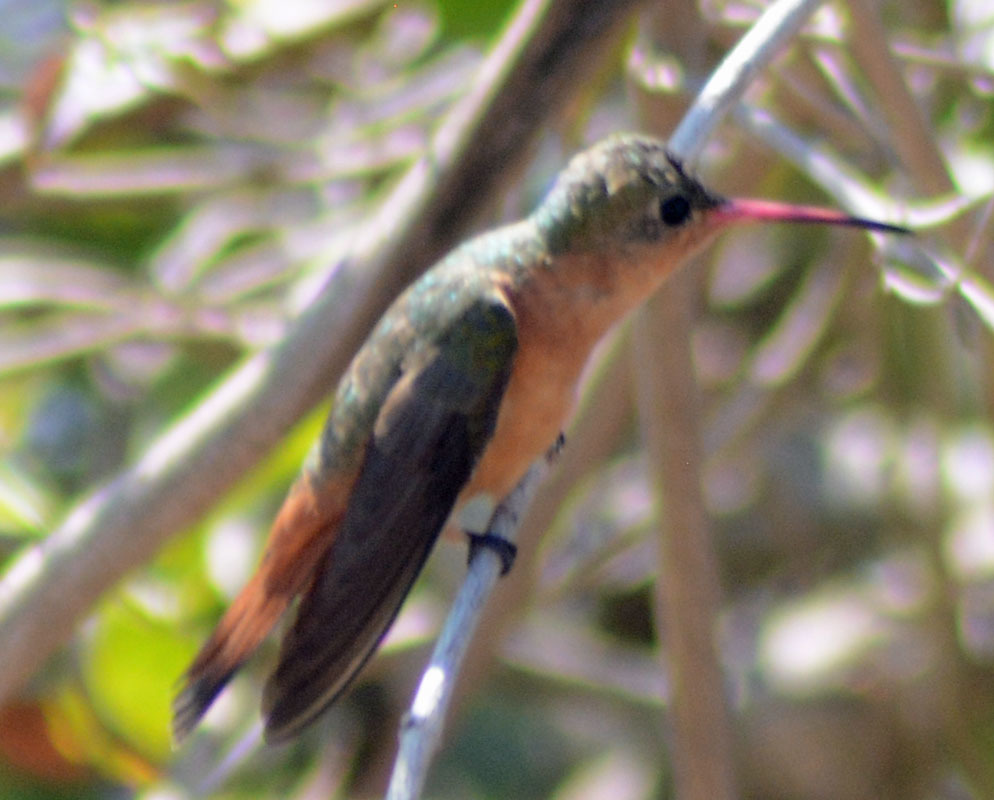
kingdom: Animalia
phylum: Chordata
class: Aves
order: Apodiformes
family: Trochilidae
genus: Amazilia
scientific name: Amazilia rutila
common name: Cinnamon hummingbird
